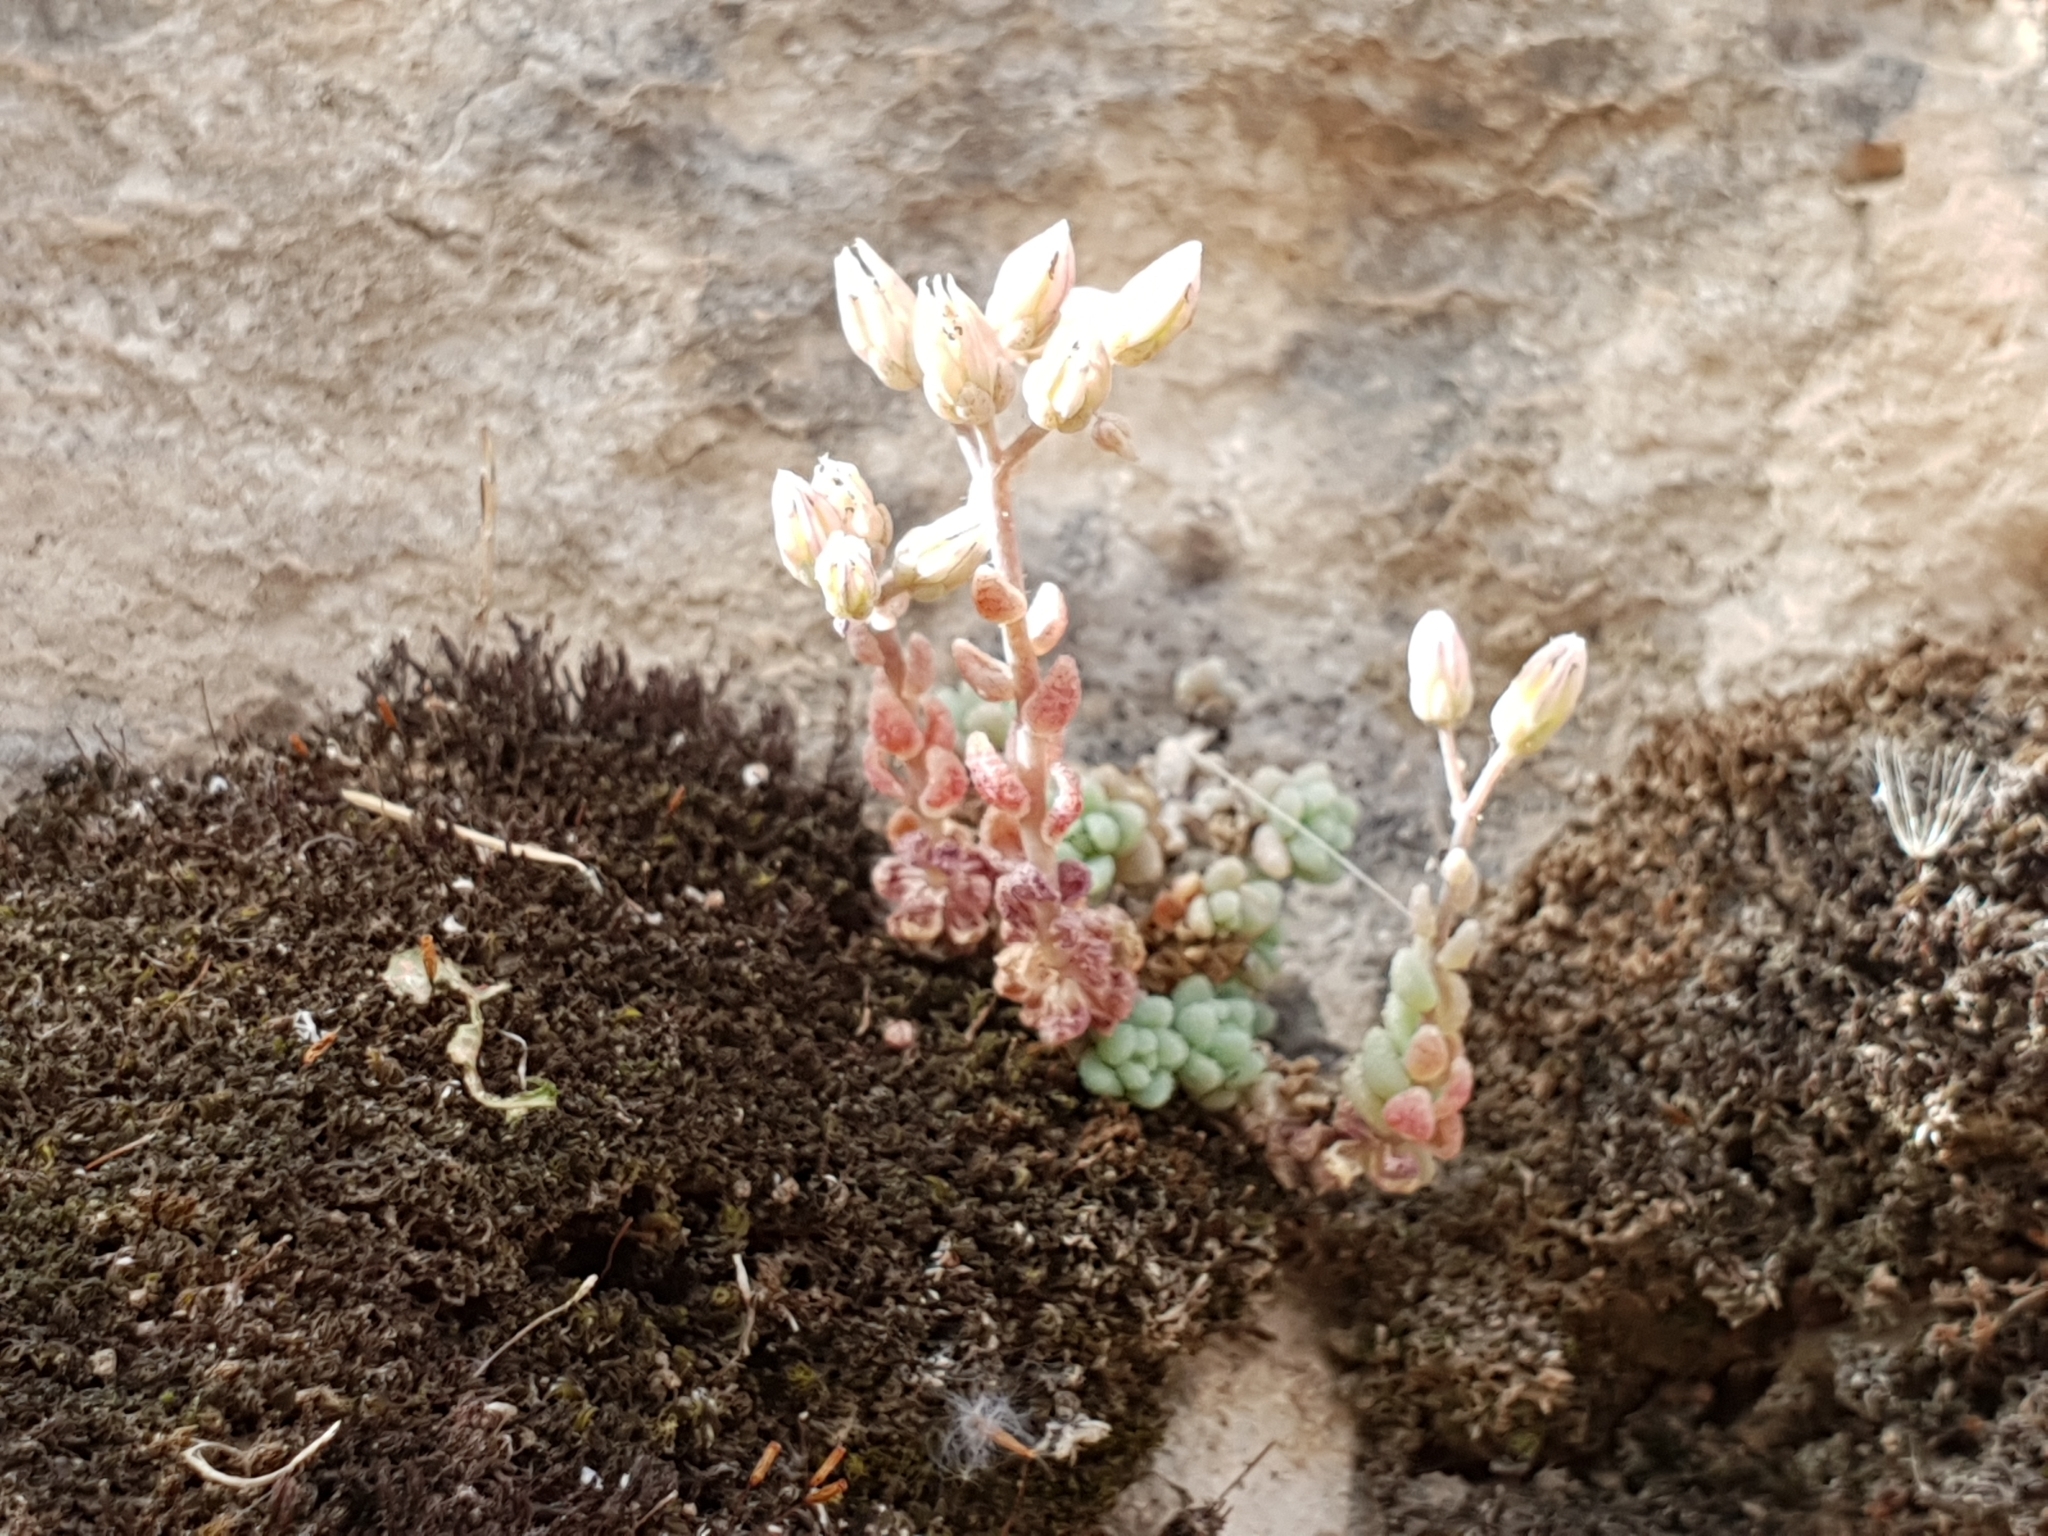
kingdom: Plantae
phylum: Tracheophyta
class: Magnoliopsida
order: Saxifragales
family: Crassulaceae
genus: Sedum
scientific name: Sedum dasyphyllum
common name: Thick-leaf stonecrop
